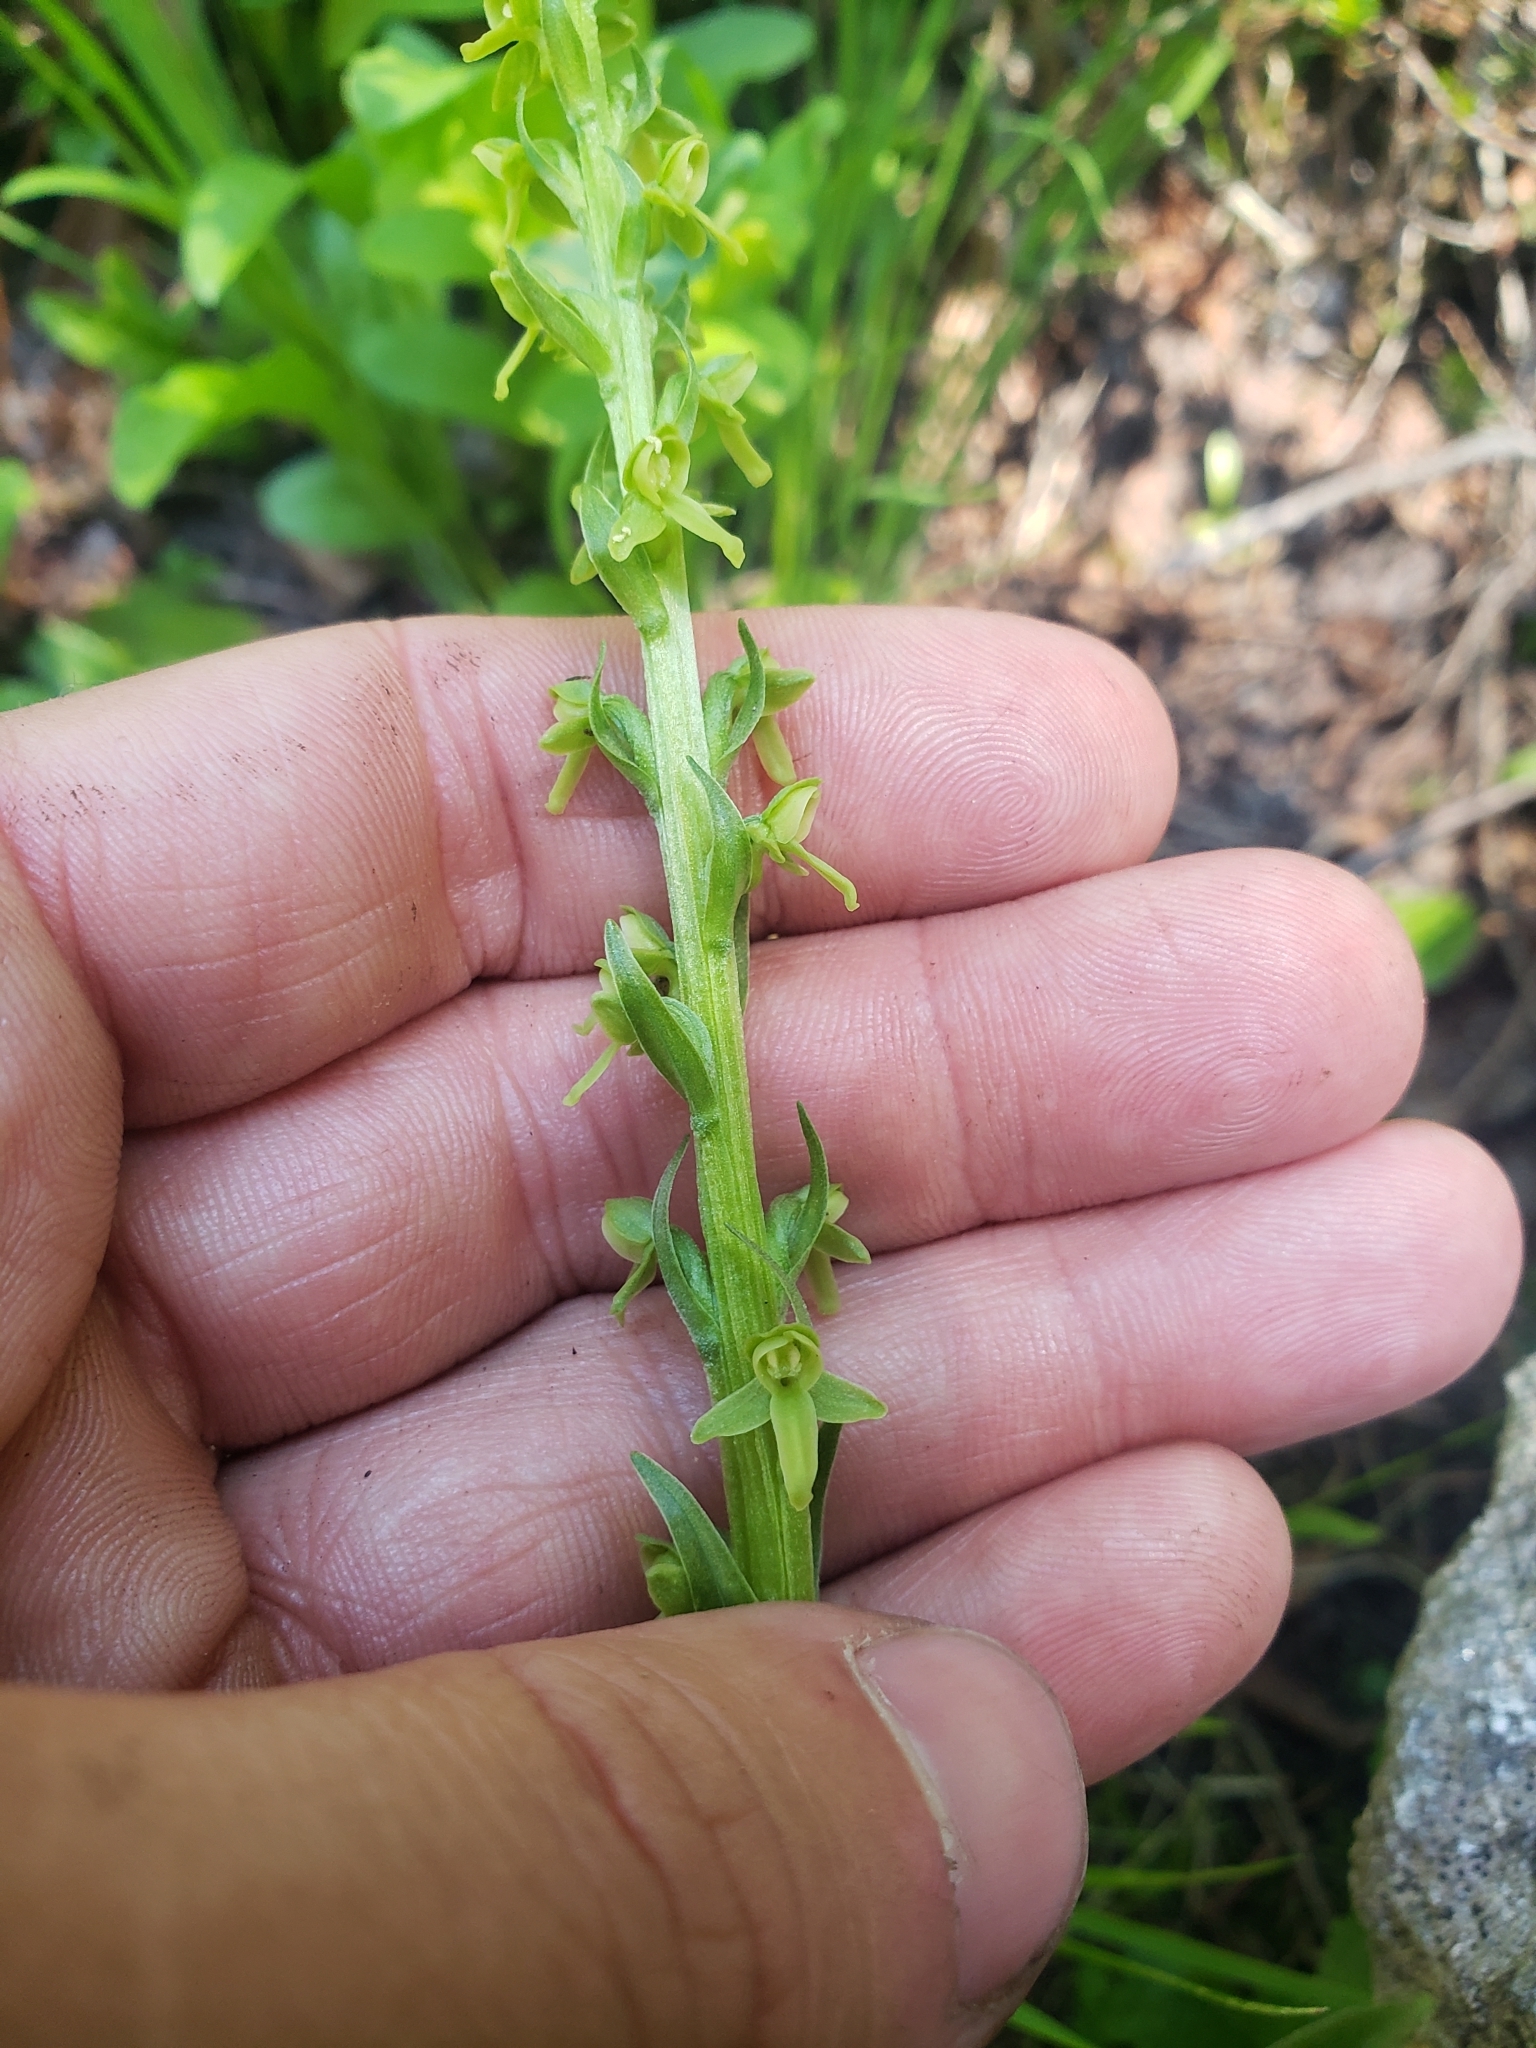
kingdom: Plantae
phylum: Tracheophyta
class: Liliopsida
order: Asparagales
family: Orchidaceae
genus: Platanthera
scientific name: Platanthera stricta
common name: Slender bog orchid
